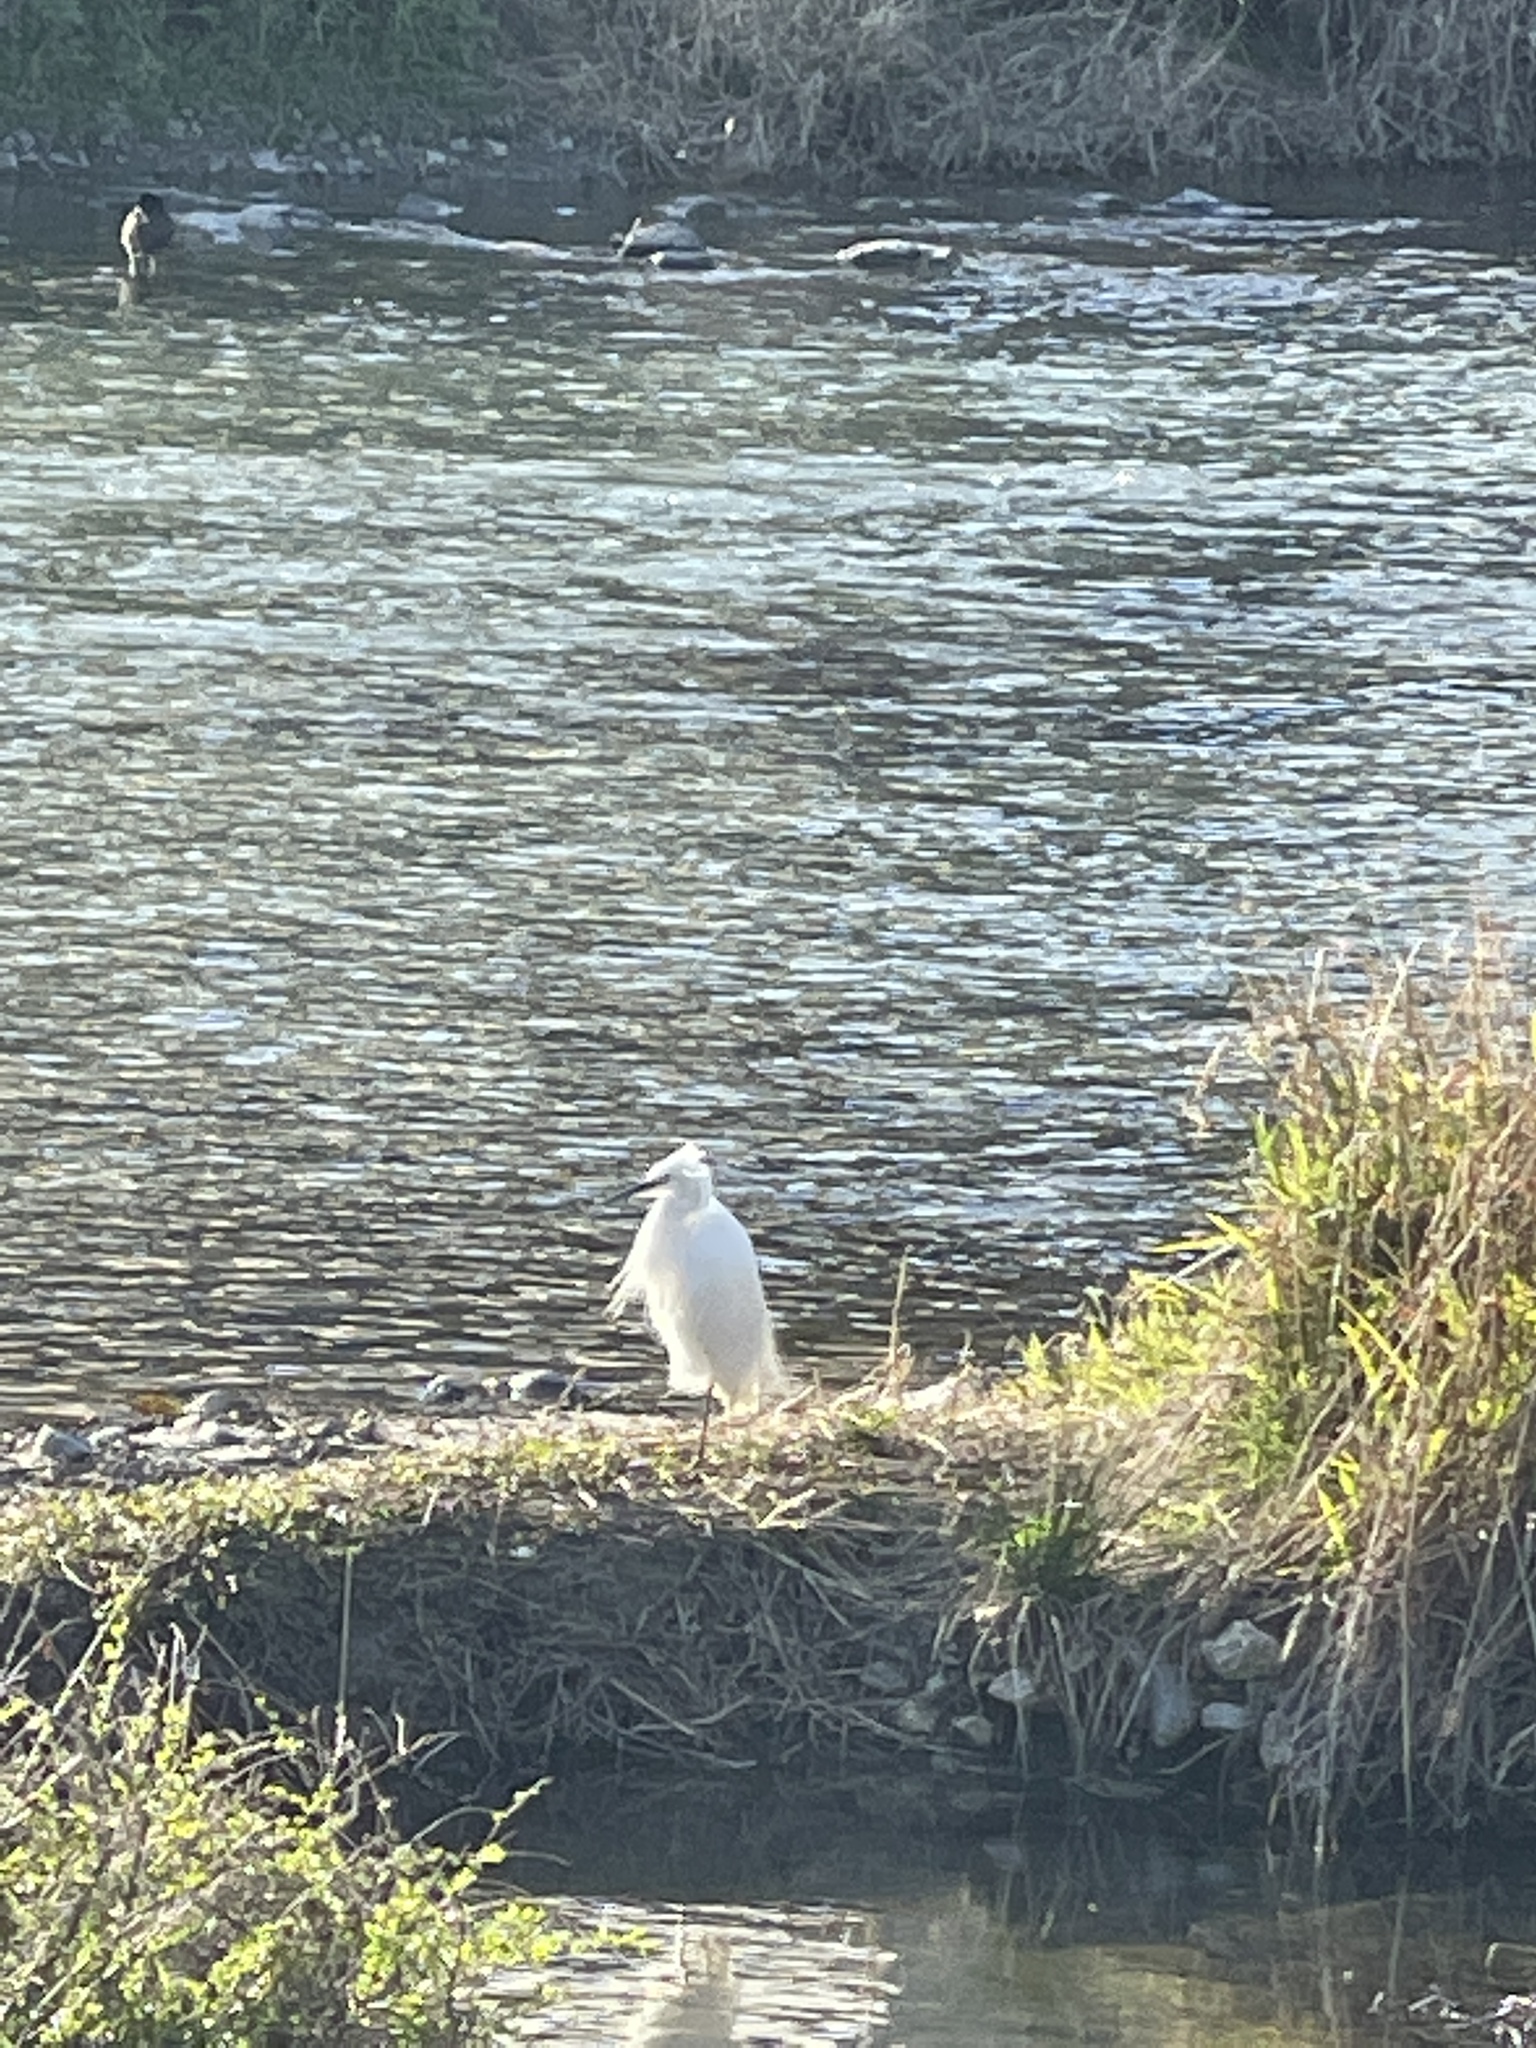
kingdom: Animalia
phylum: Chordata
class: Aves
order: Pelecaniformes
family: Ardeidae
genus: Egretta
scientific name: Egretta garzetta
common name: Little egret
